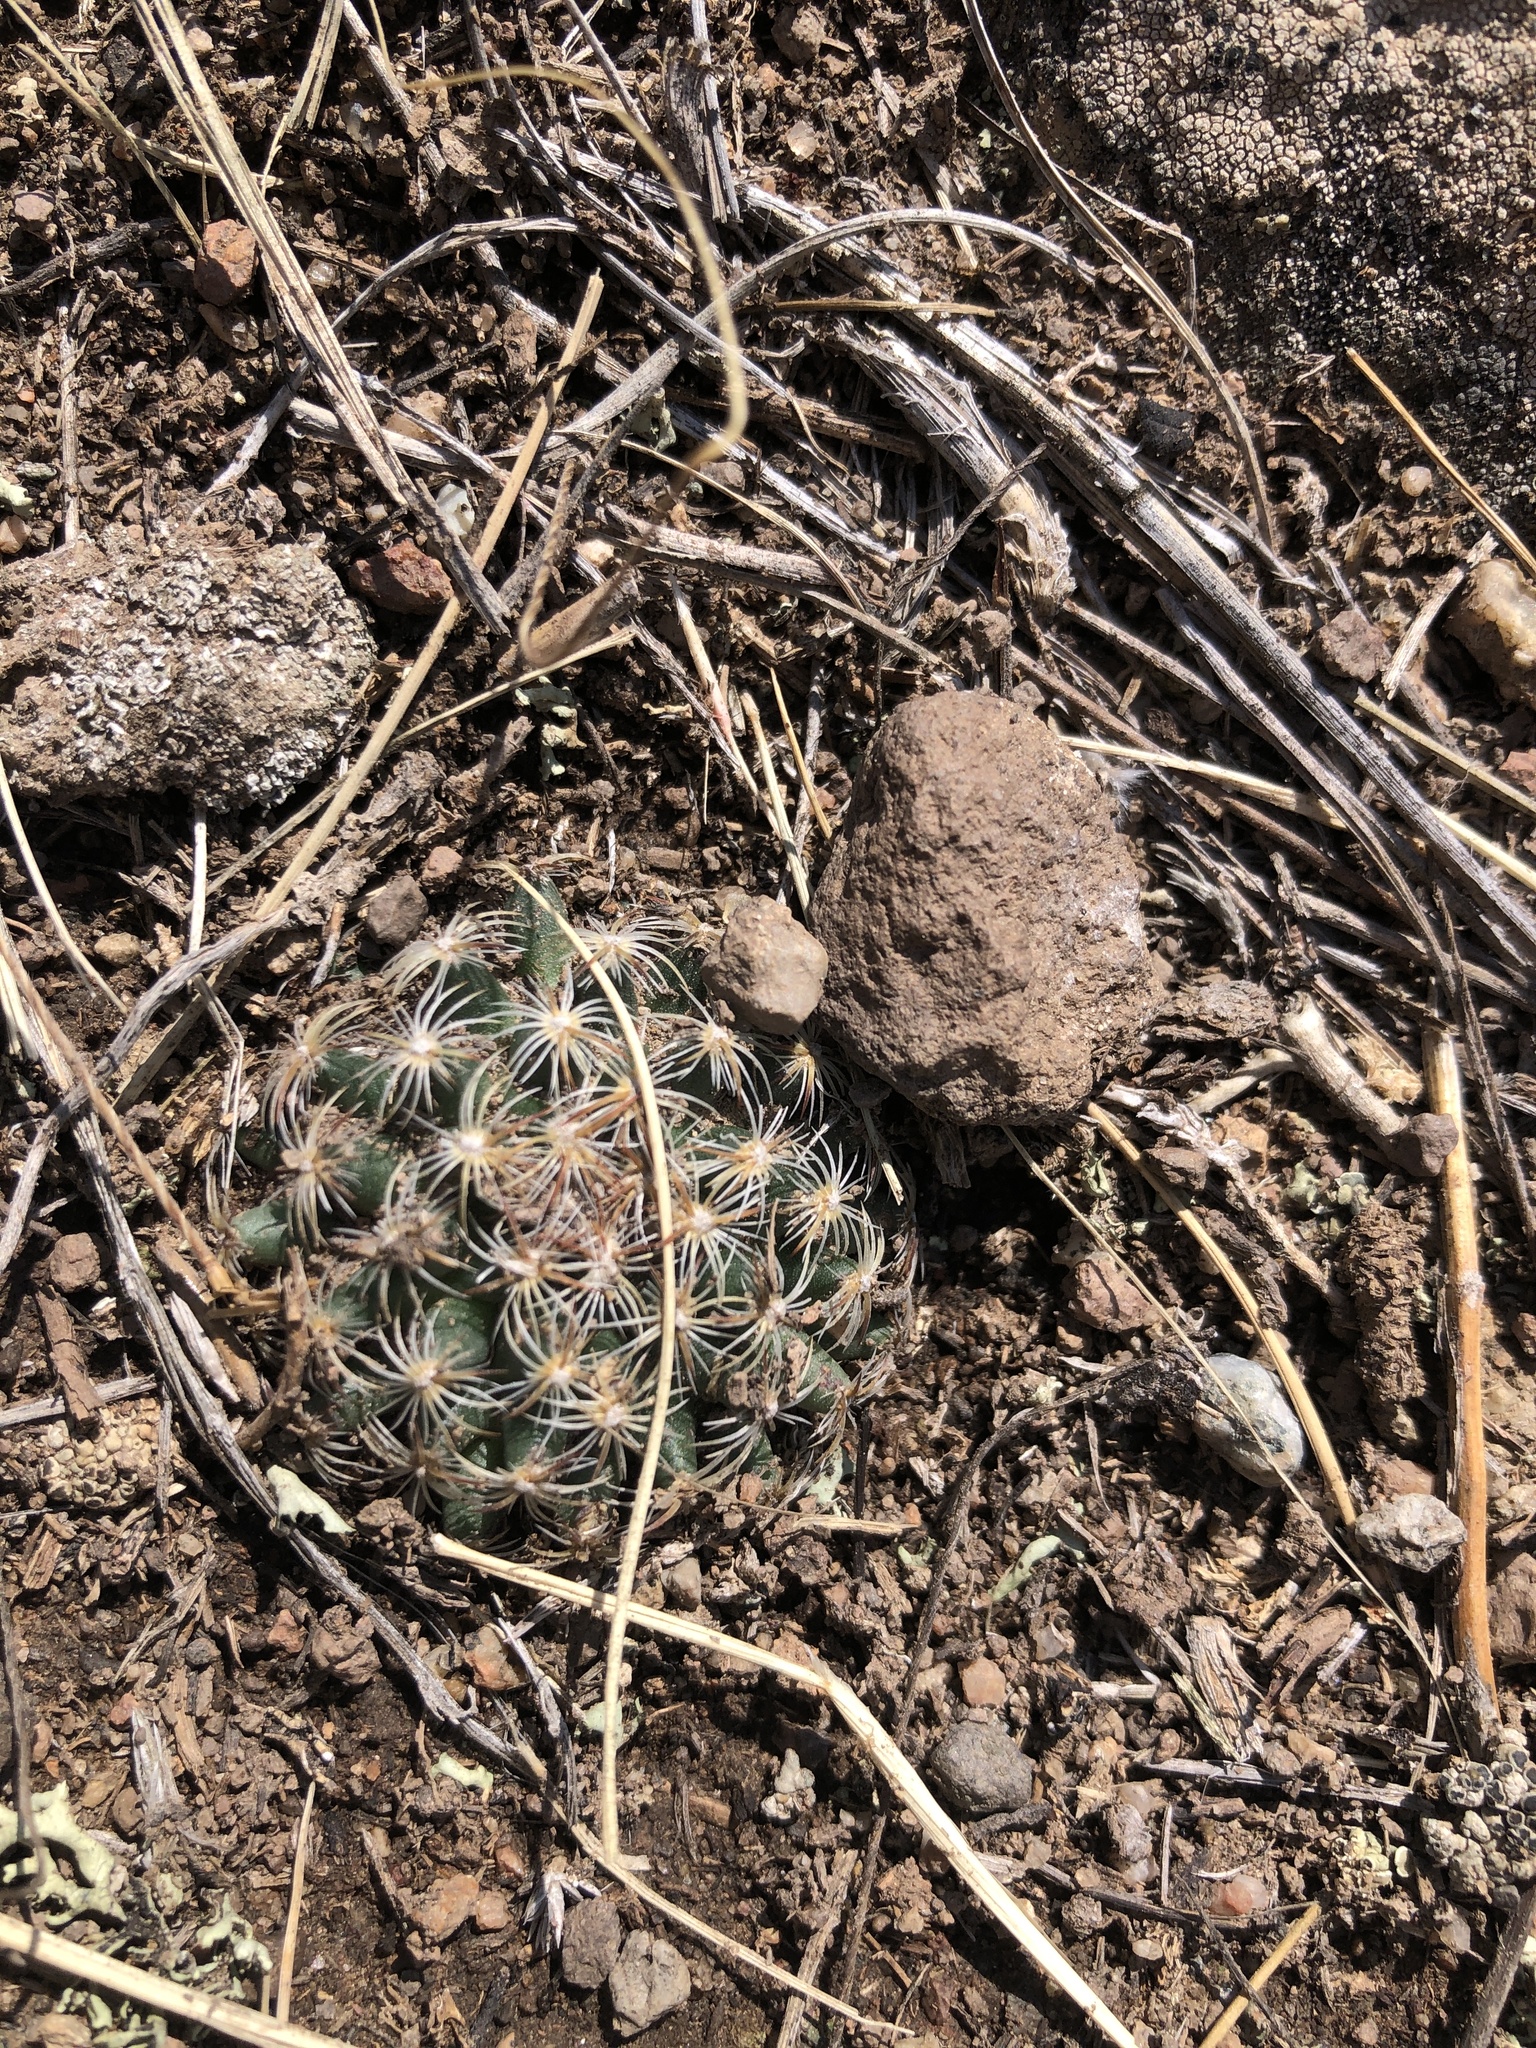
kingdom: Plantae
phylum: Tracheophyta
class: Magnoliopsida
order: Caryophyllales
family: Cactaceae
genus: Pediocactus
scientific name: Pediocactus simpsonii
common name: Simpson's hedgehog cactus
